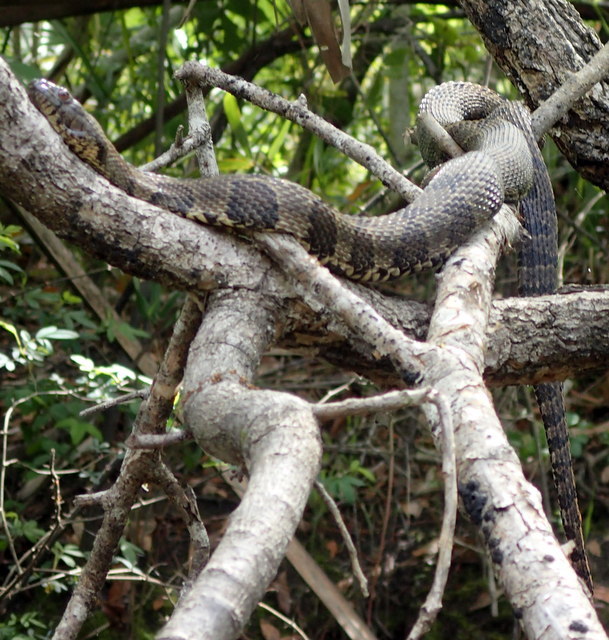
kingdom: Animalia
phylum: Chordata
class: Squamata
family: Colubridae
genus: Nerodia
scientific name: Nerodia taxispilota
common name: Brown water snake
